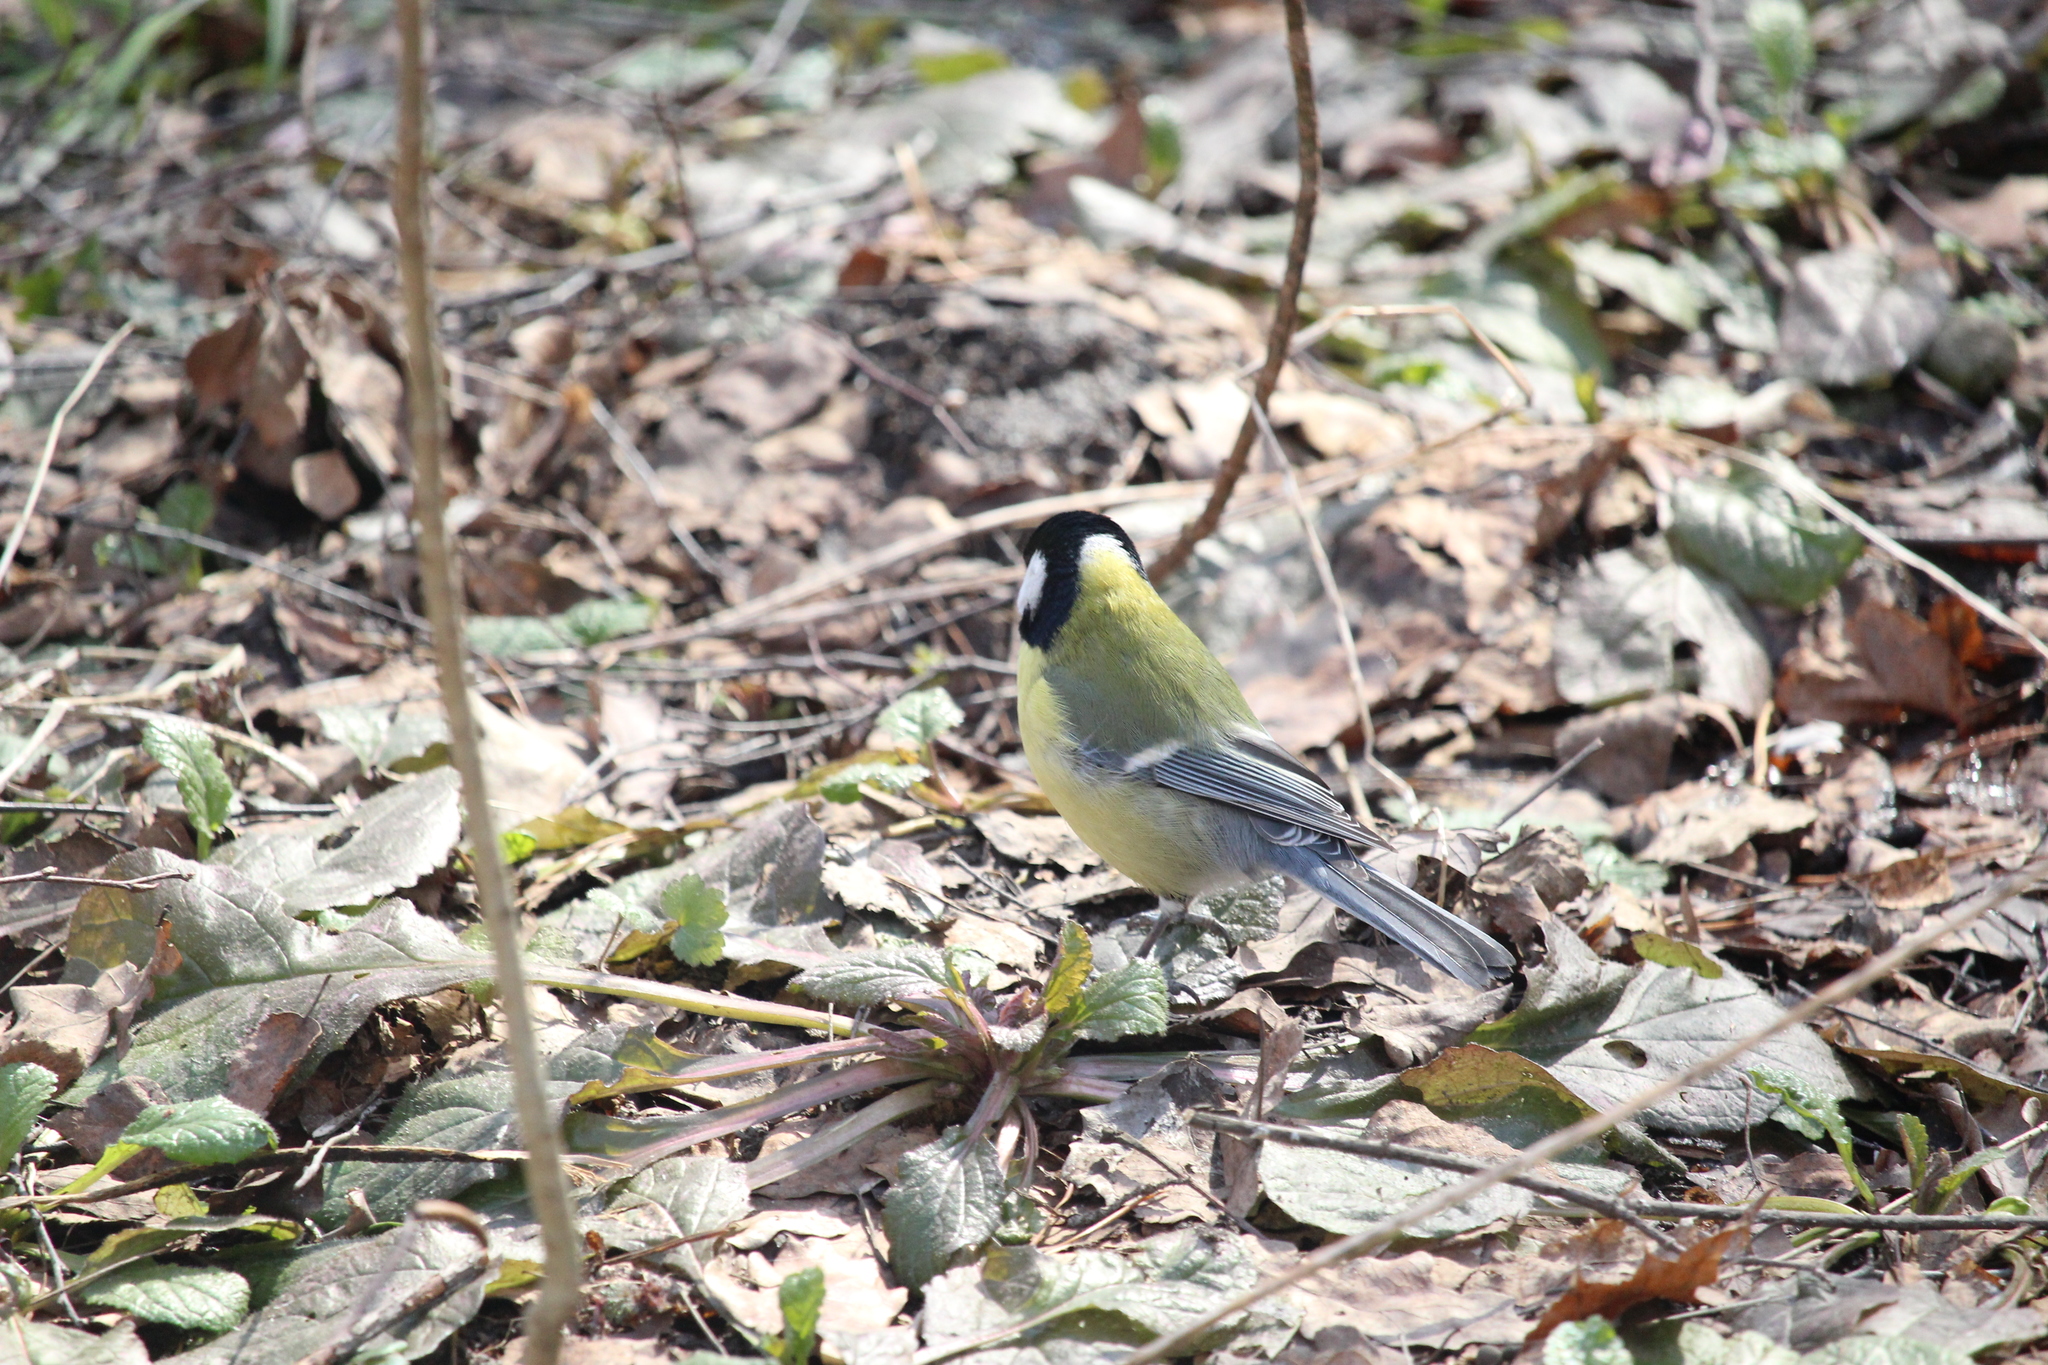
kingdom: Animalia
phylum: Chordata
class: Aves
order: Passeriformes
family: Paridae
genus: Parus
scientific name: Parus major
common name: Great tit
